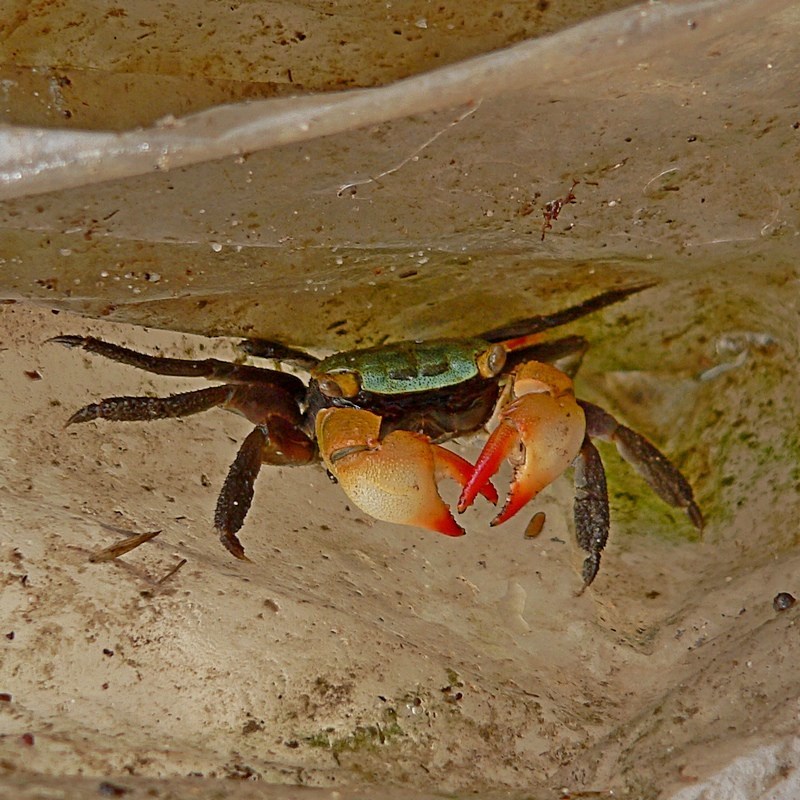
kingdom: Animalia
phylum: Arthropoda
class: Malacostraca
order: Decapoda
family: Sesarmidae
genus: Parasesarma
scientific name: Parasesarma erythodactylum
